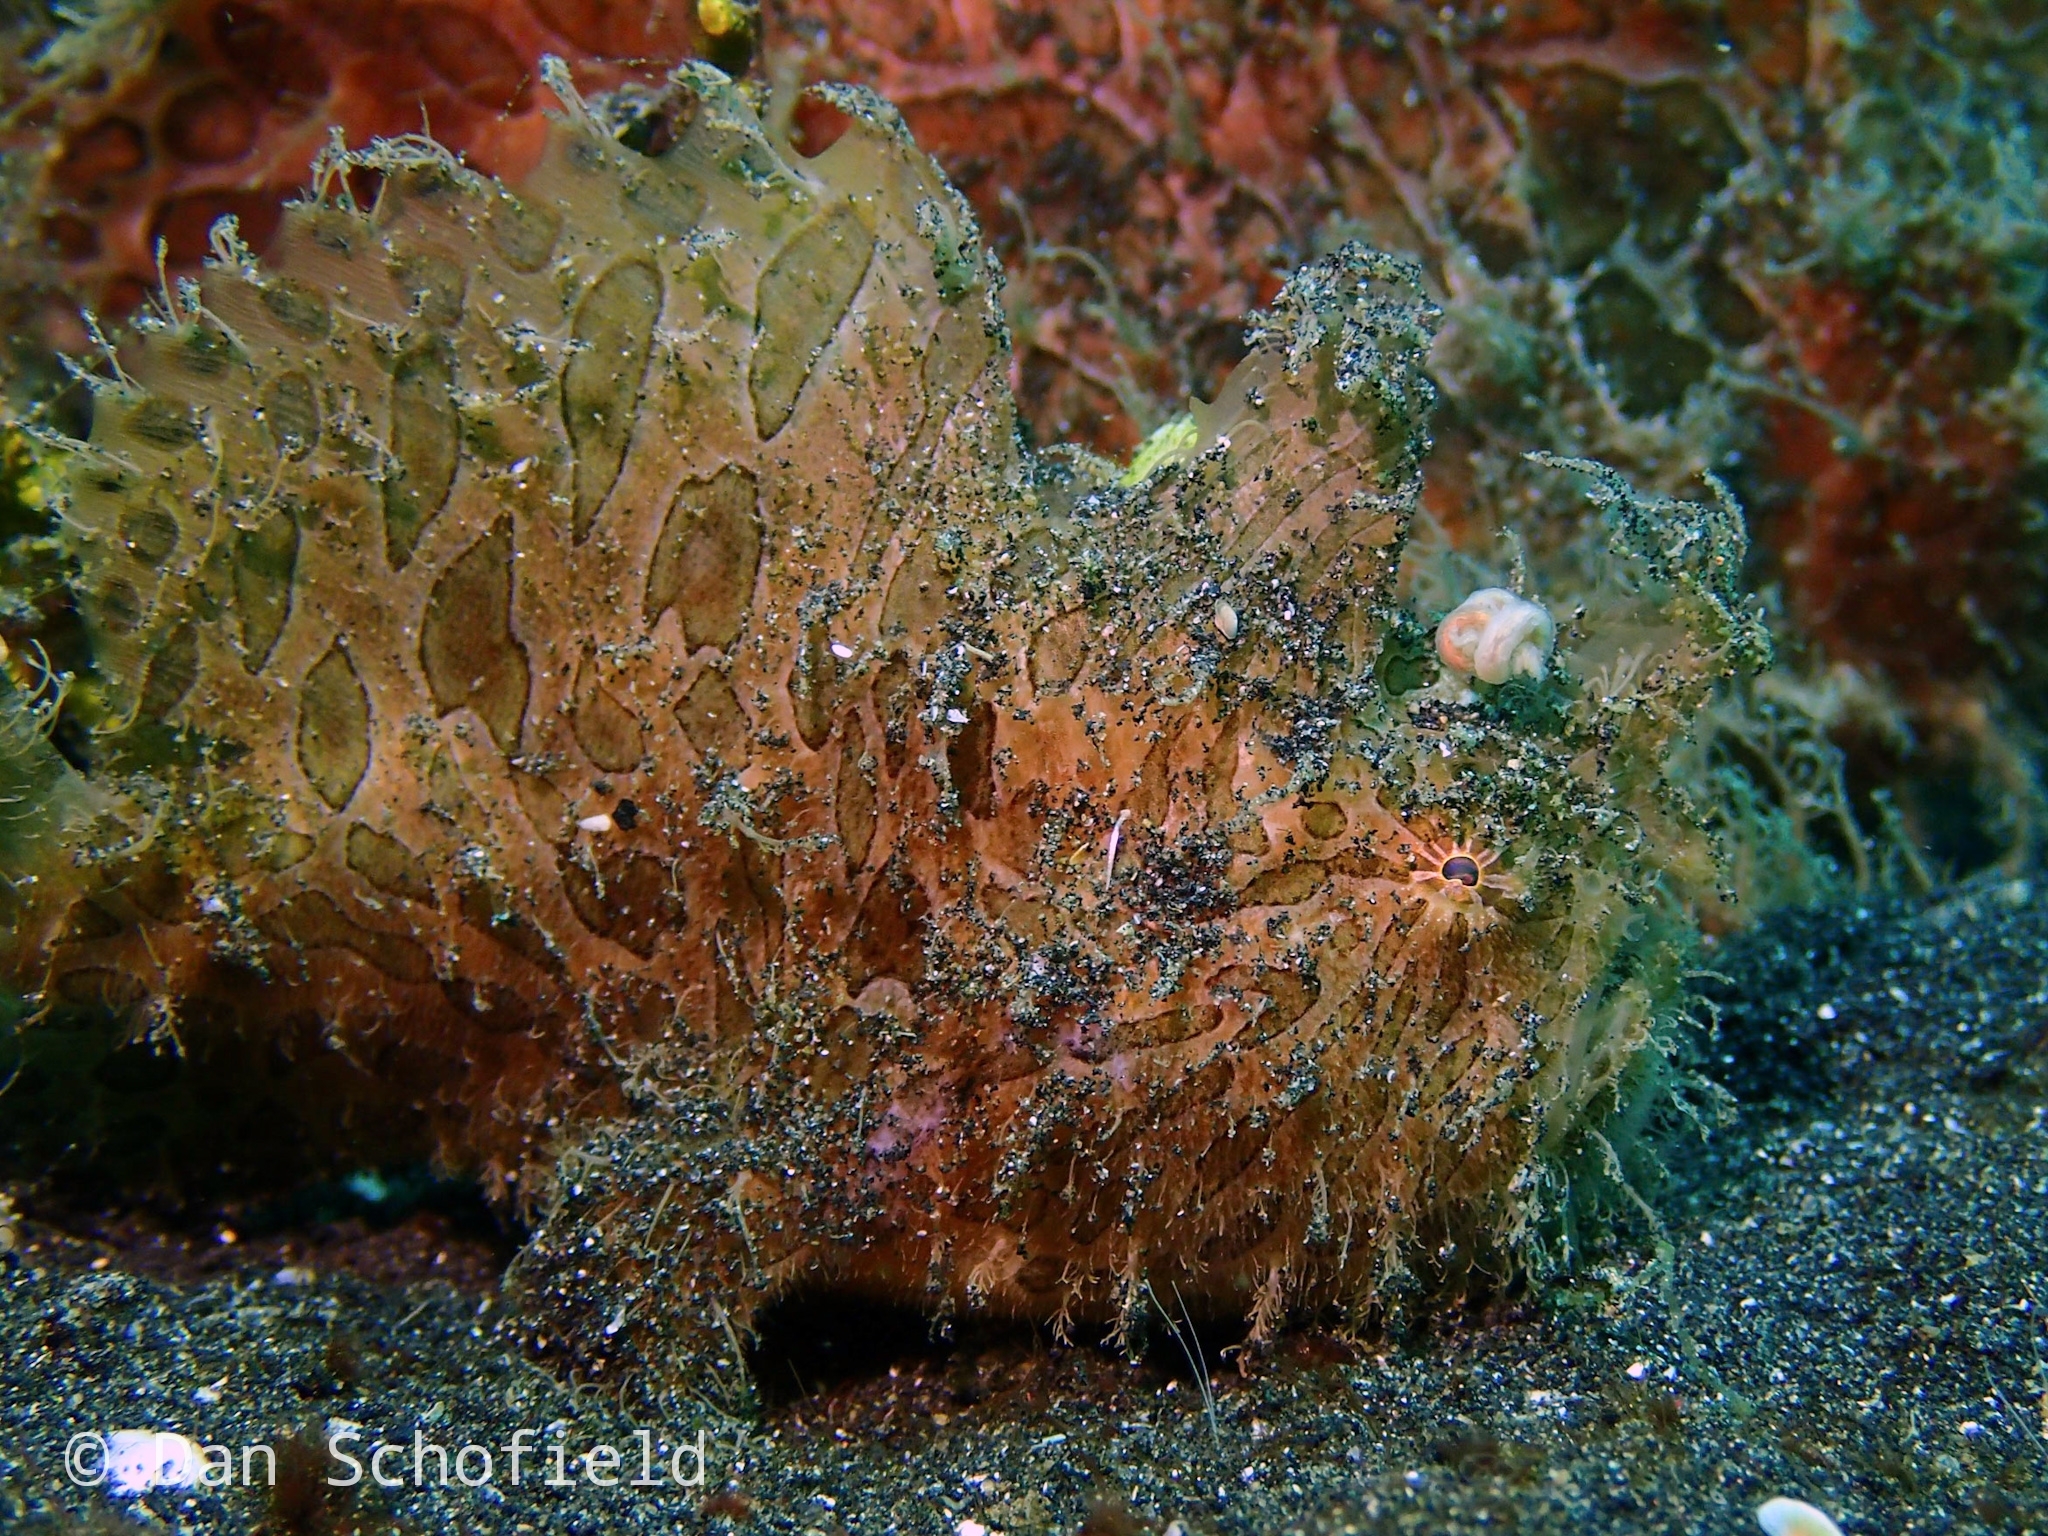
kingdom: Animalia
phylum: Chordata
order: Lophiiformes
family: Antennariidae
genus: Antennarius
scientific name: Antennarius striatus
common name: Striated frogfish
